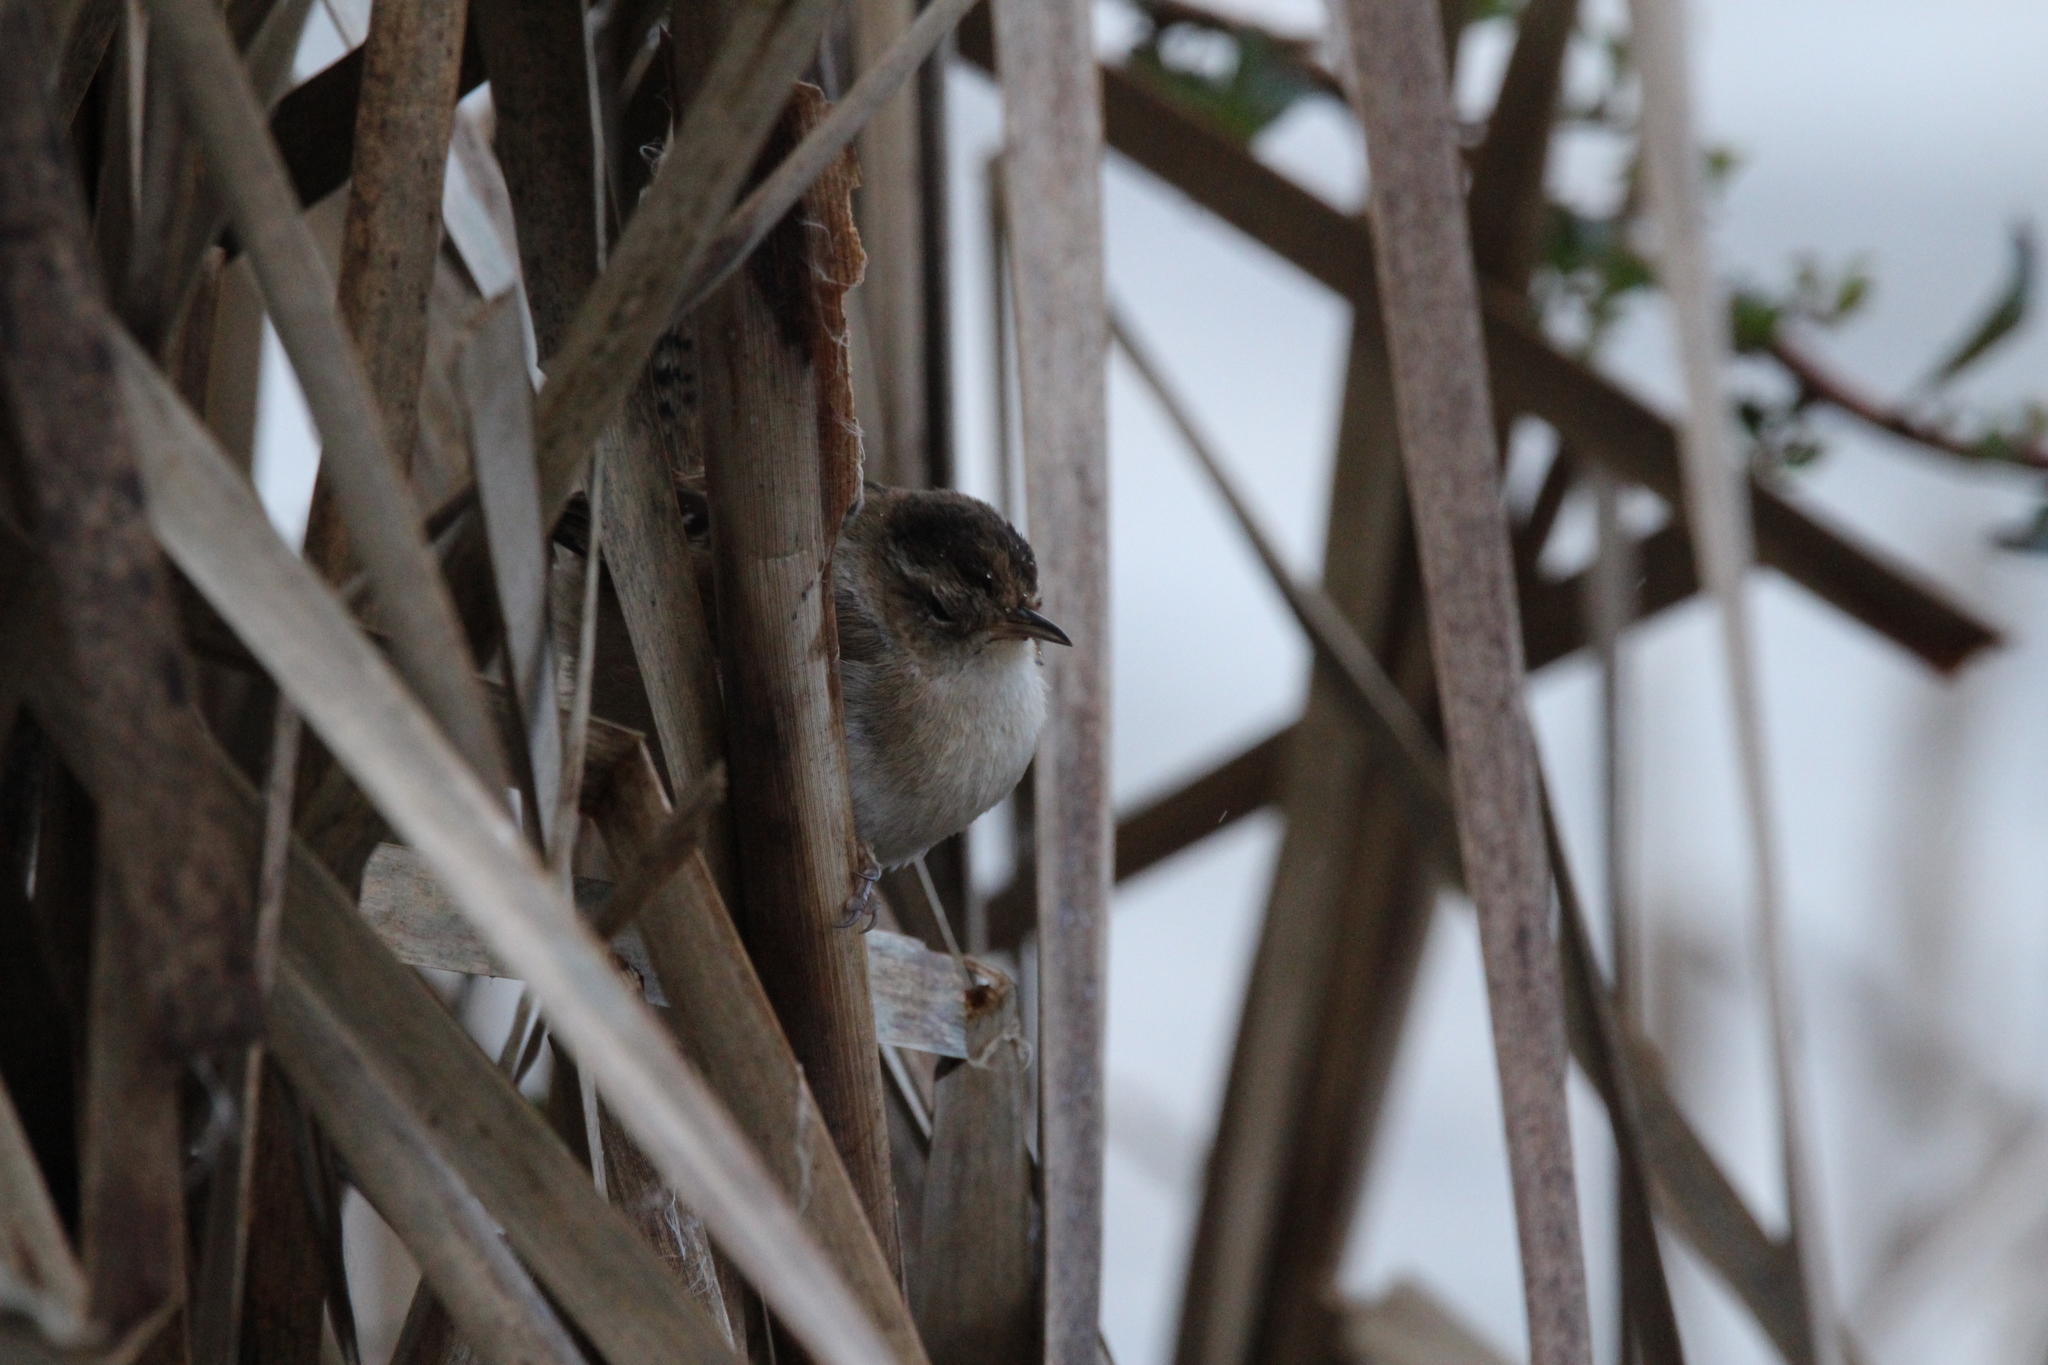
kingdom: Animalia
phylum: Chordata
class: Aves
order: Passeriformes
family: Troglodytidae
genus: Cistothorus
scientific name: Cistothorus palustris
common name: Marsh wren
